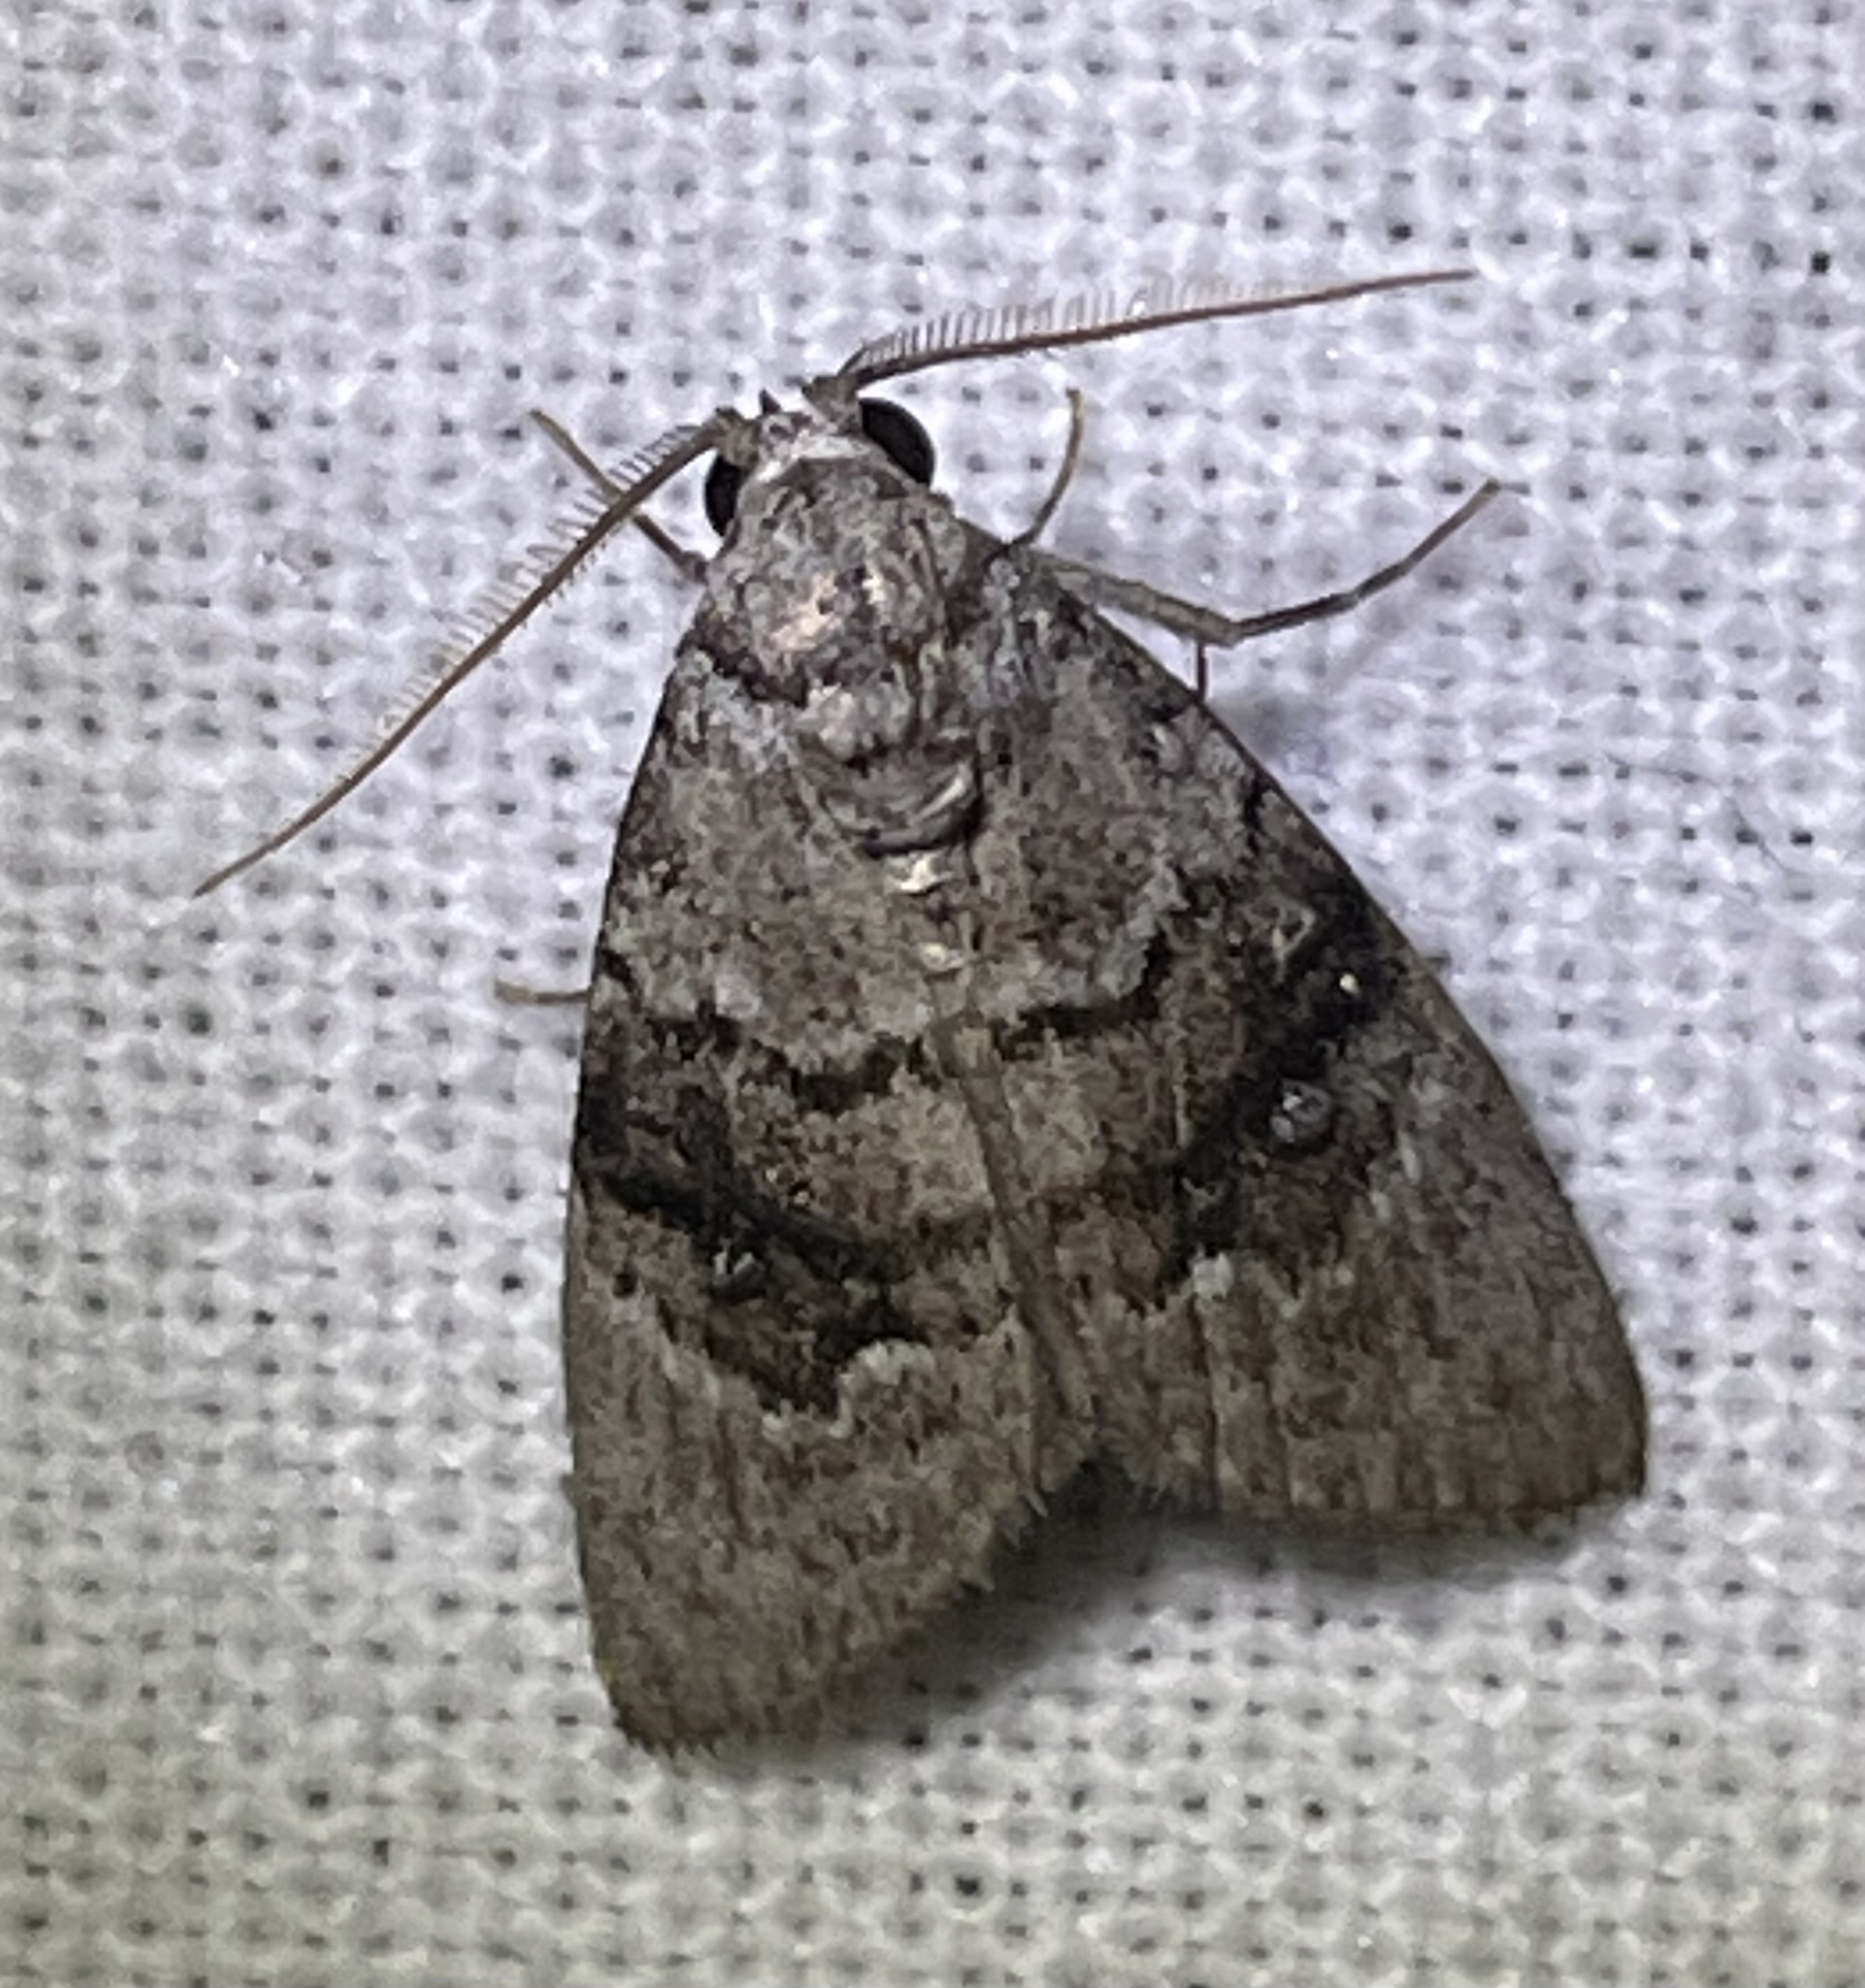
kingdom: Animalia
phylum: Arthropoda
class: Insecta
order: Lepidoptera
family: Nolidae
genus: Uraba
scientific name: Uraba lugens
